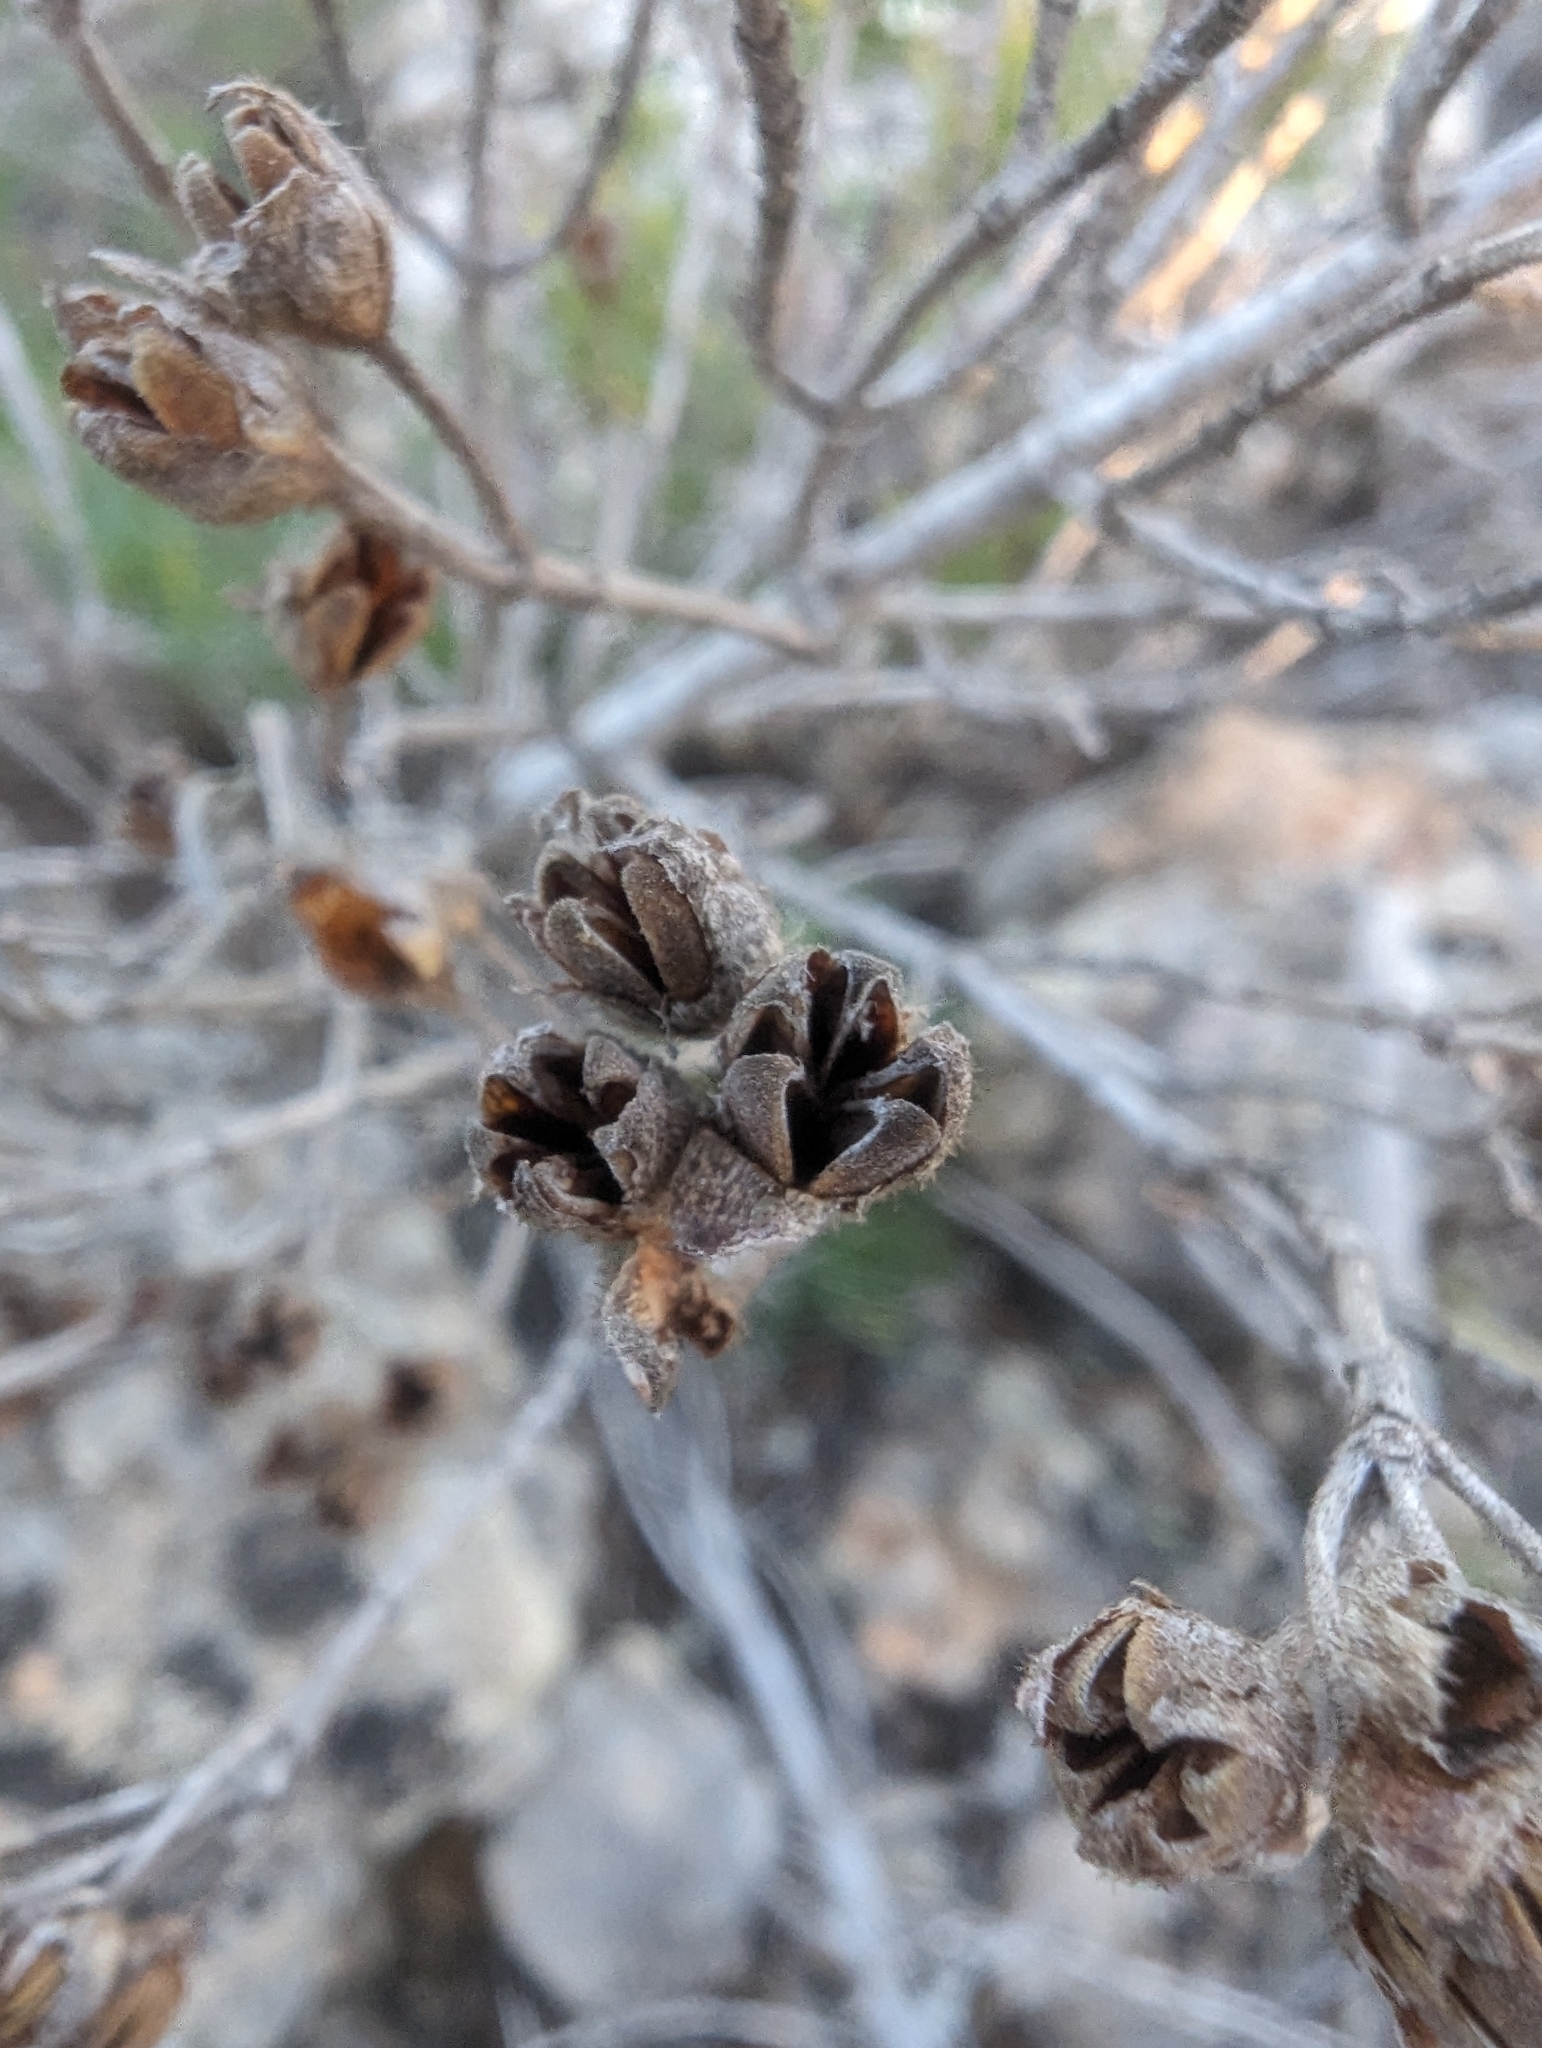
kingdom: Plantae
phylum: Tracheophyta
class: Magnoliopsida
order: Malvales
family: Cistaceae
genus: Cistus
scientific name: Cistus clusii
